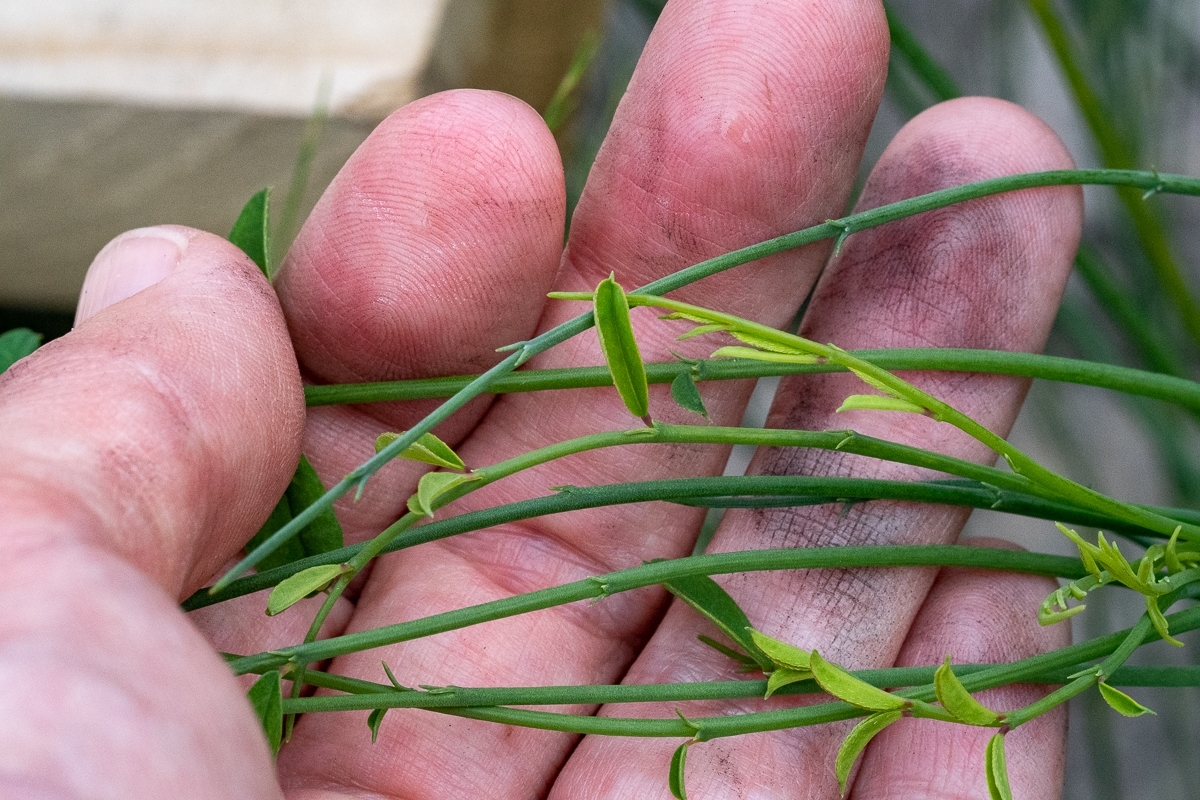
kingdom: Plantae
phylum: Tracheophyta
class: Magnoliopsida
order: Fabales
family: Fabaceae
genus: Indigofera
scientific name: Indigofera filifolia
